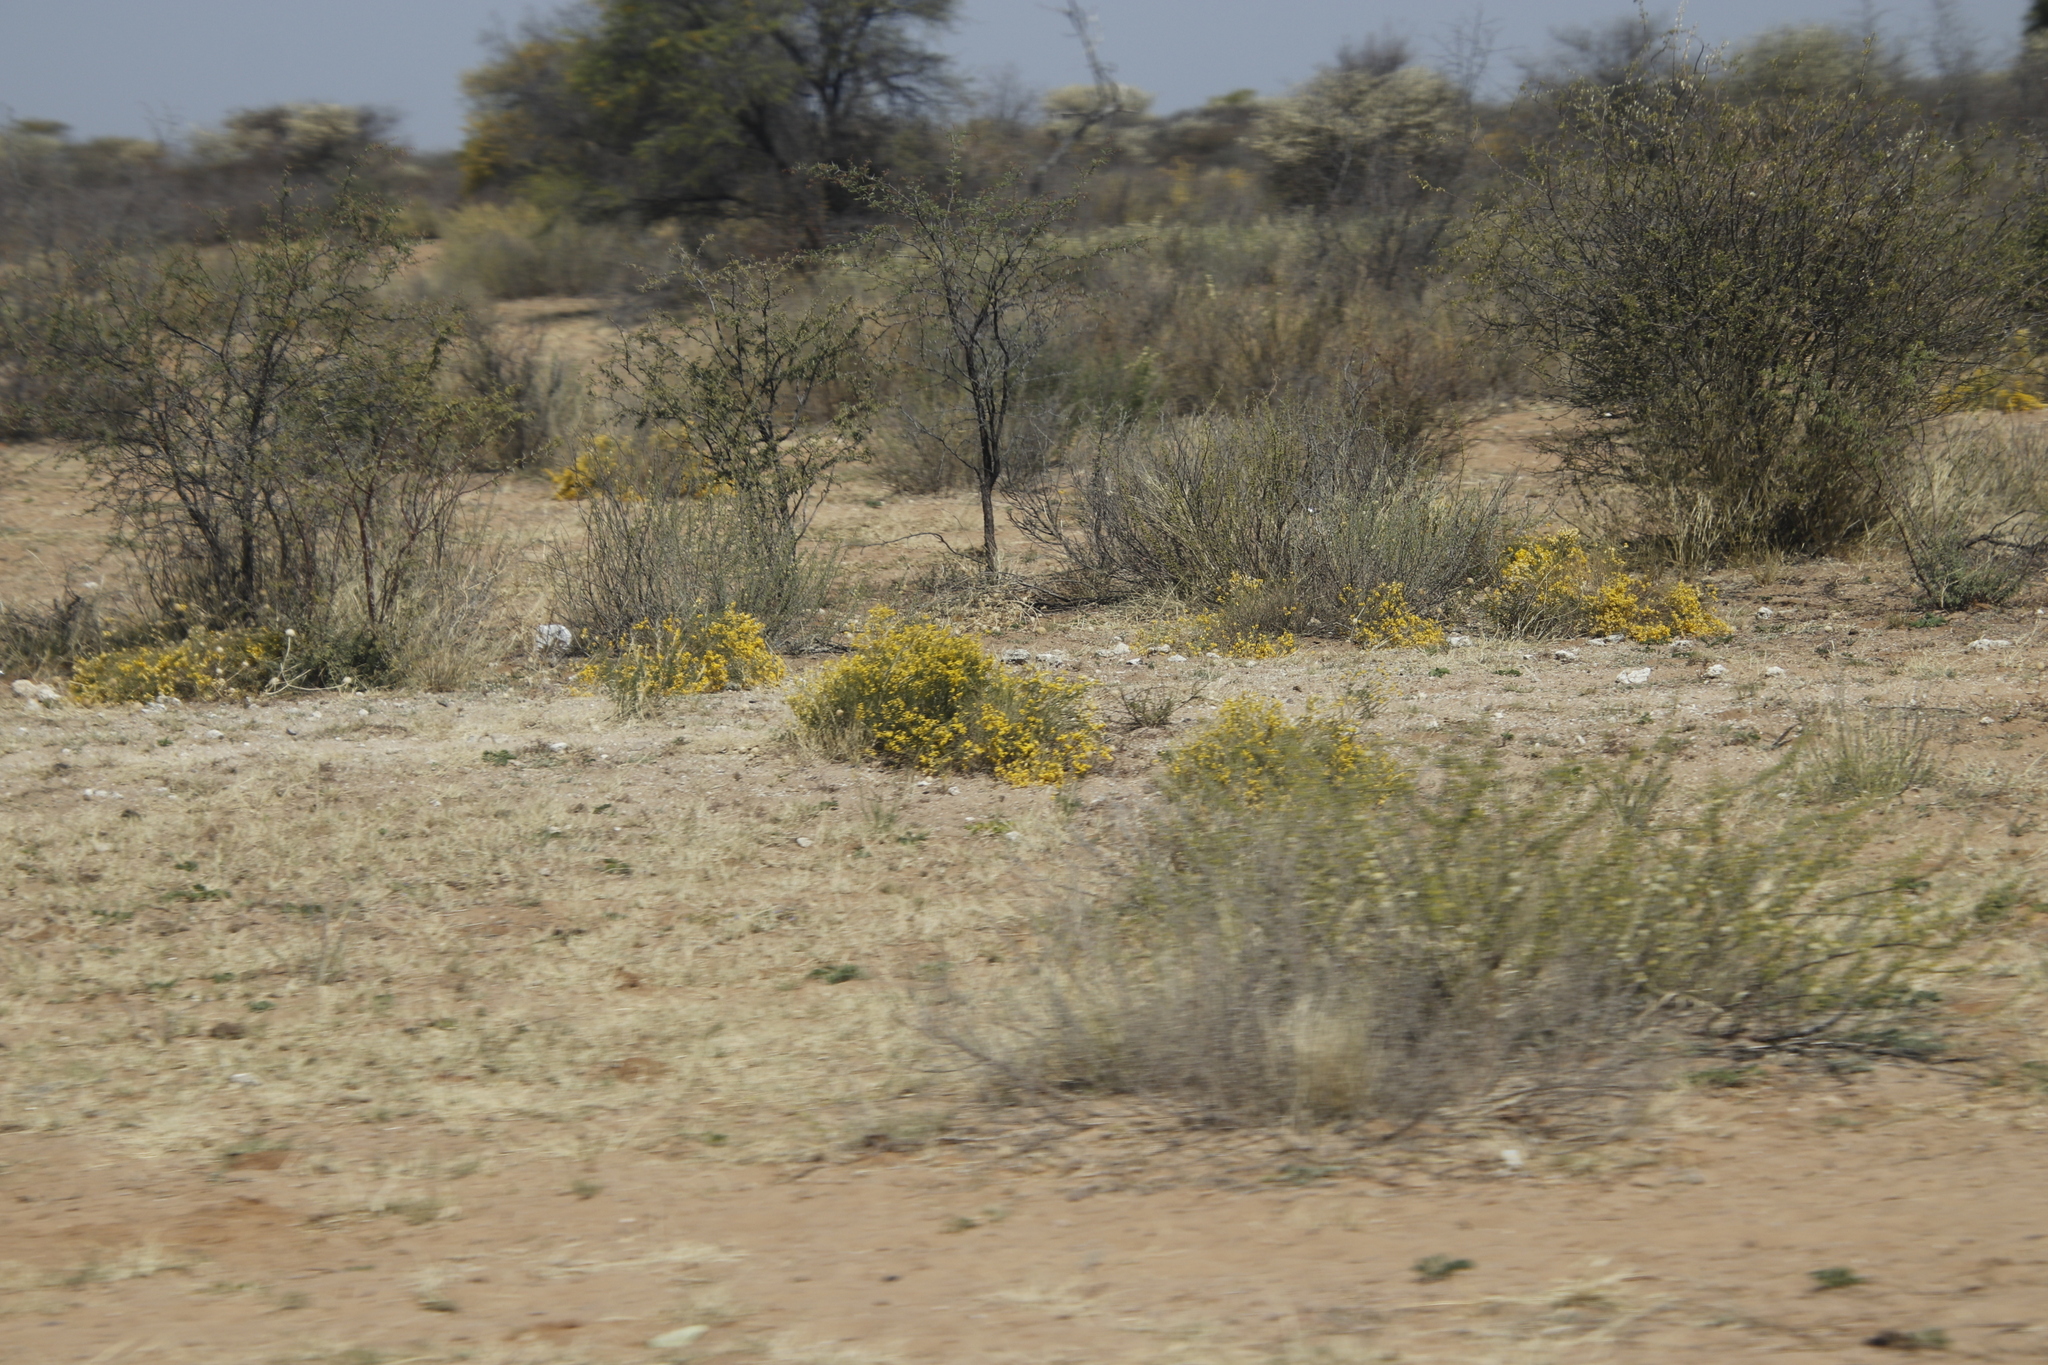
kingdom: Plantae
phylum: Tracheophyta
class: Magnoliopsida
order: Fabales
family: Fabaceae
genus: Senegalia
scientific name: Senegalia mellifera
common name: Hookthorn
